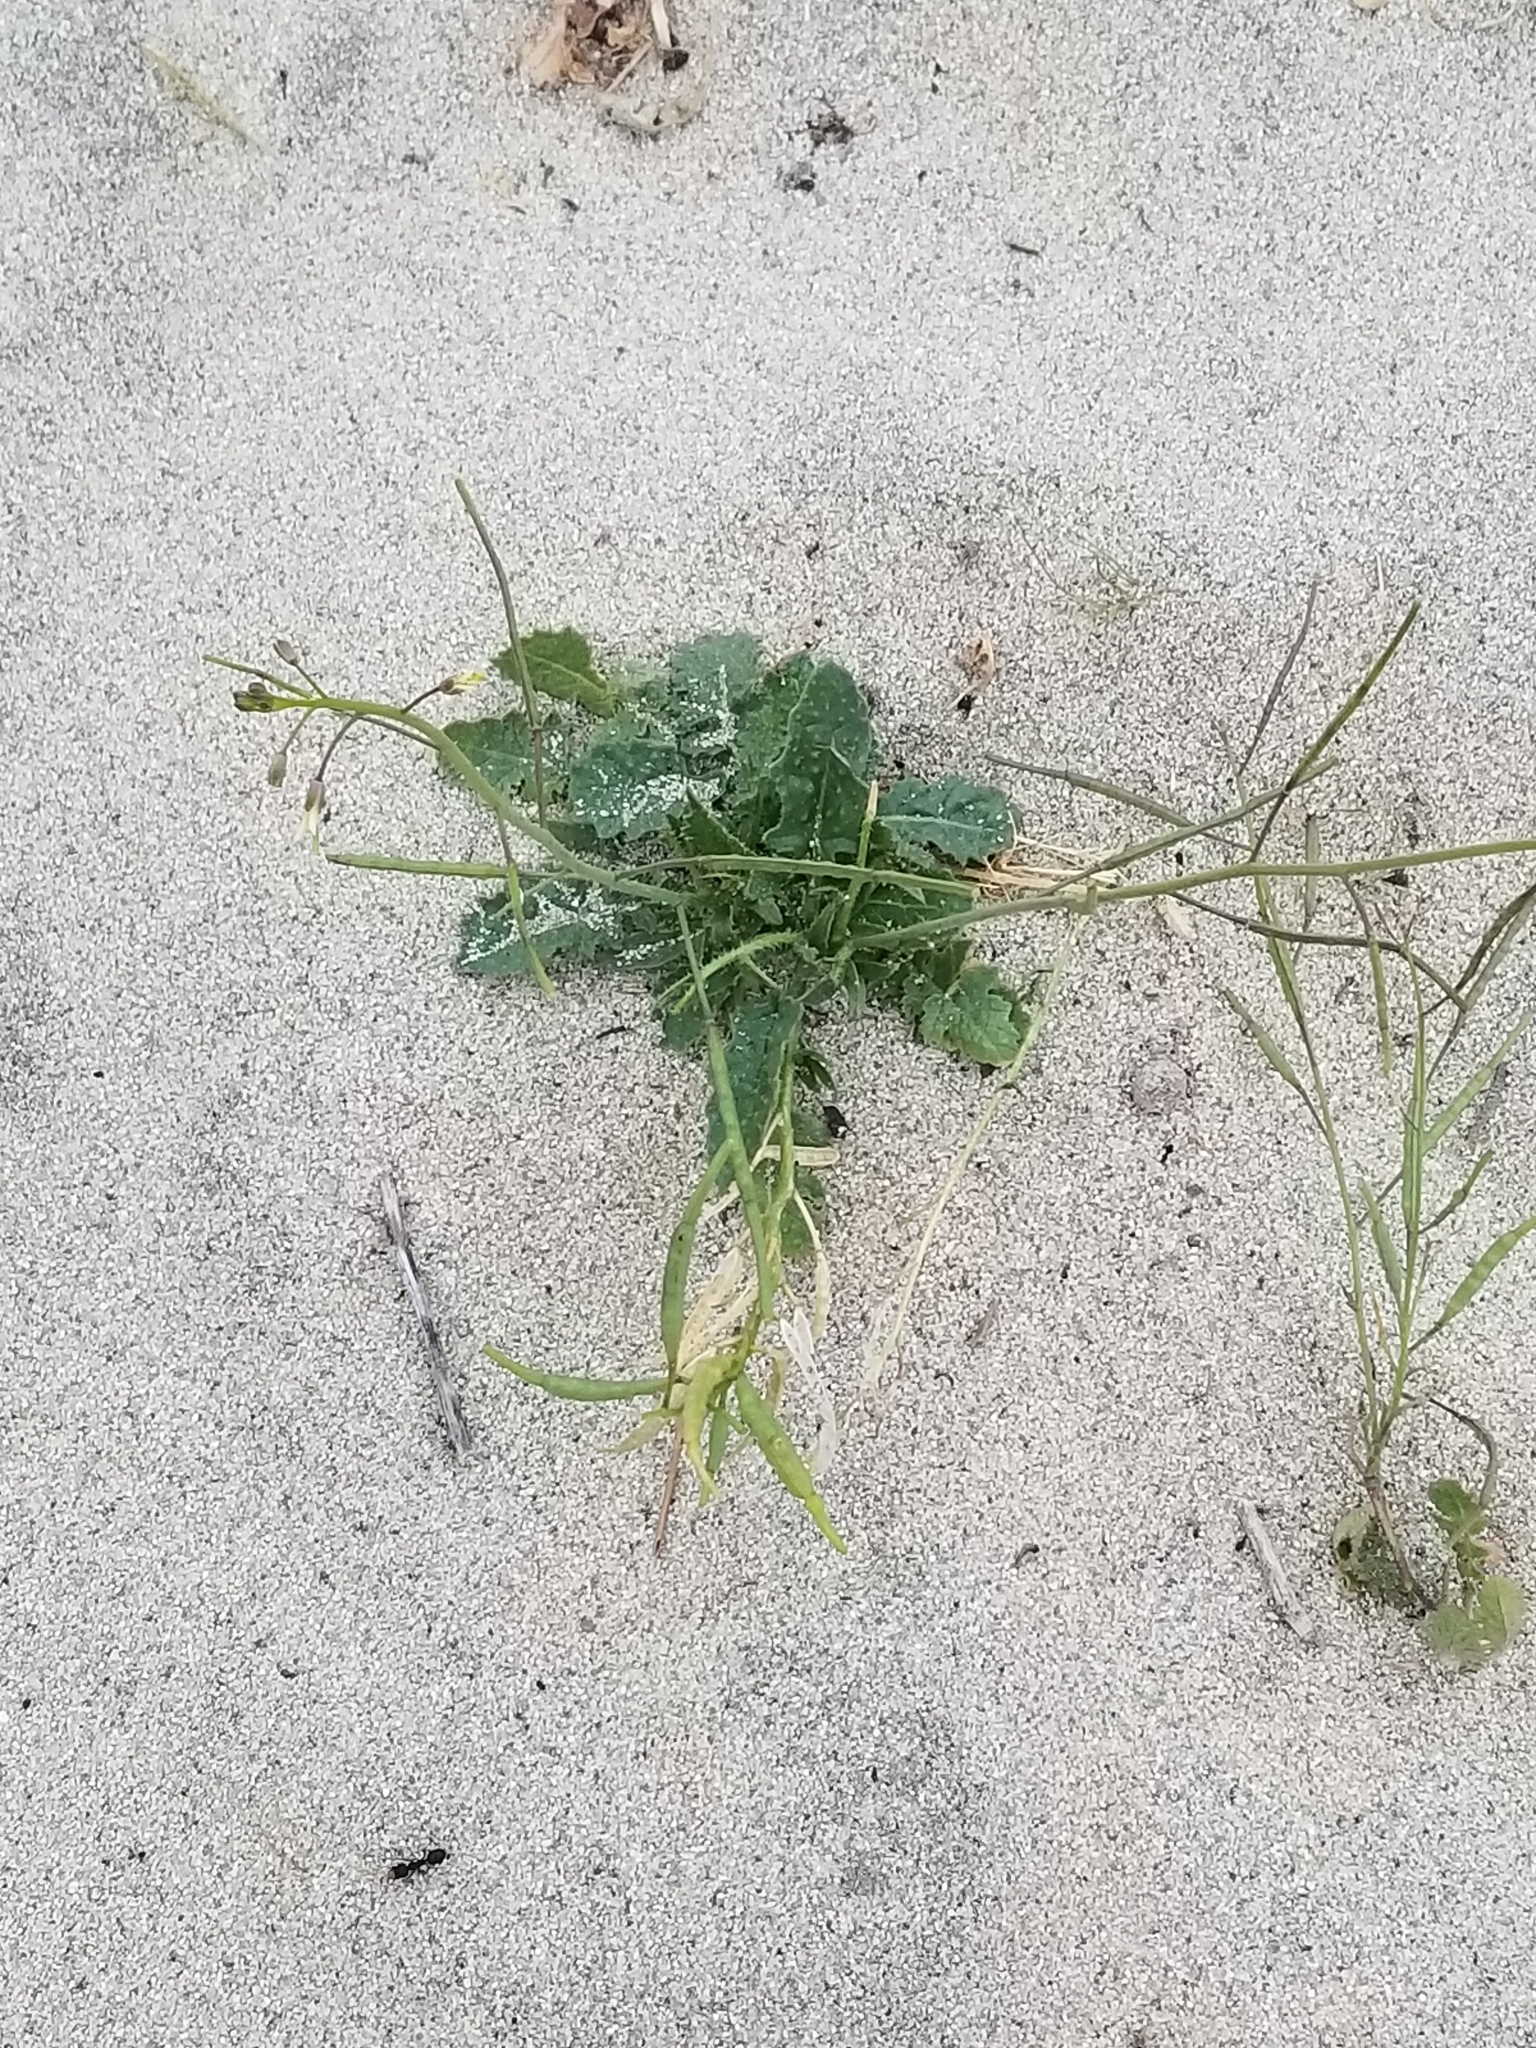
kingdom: Plantae
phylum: Tracheophyta
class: Magnoliopsida
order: Brassicales
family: Brassicaceae
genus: Brassica
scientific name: Brassica tournefortii
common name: Pale cabbage
